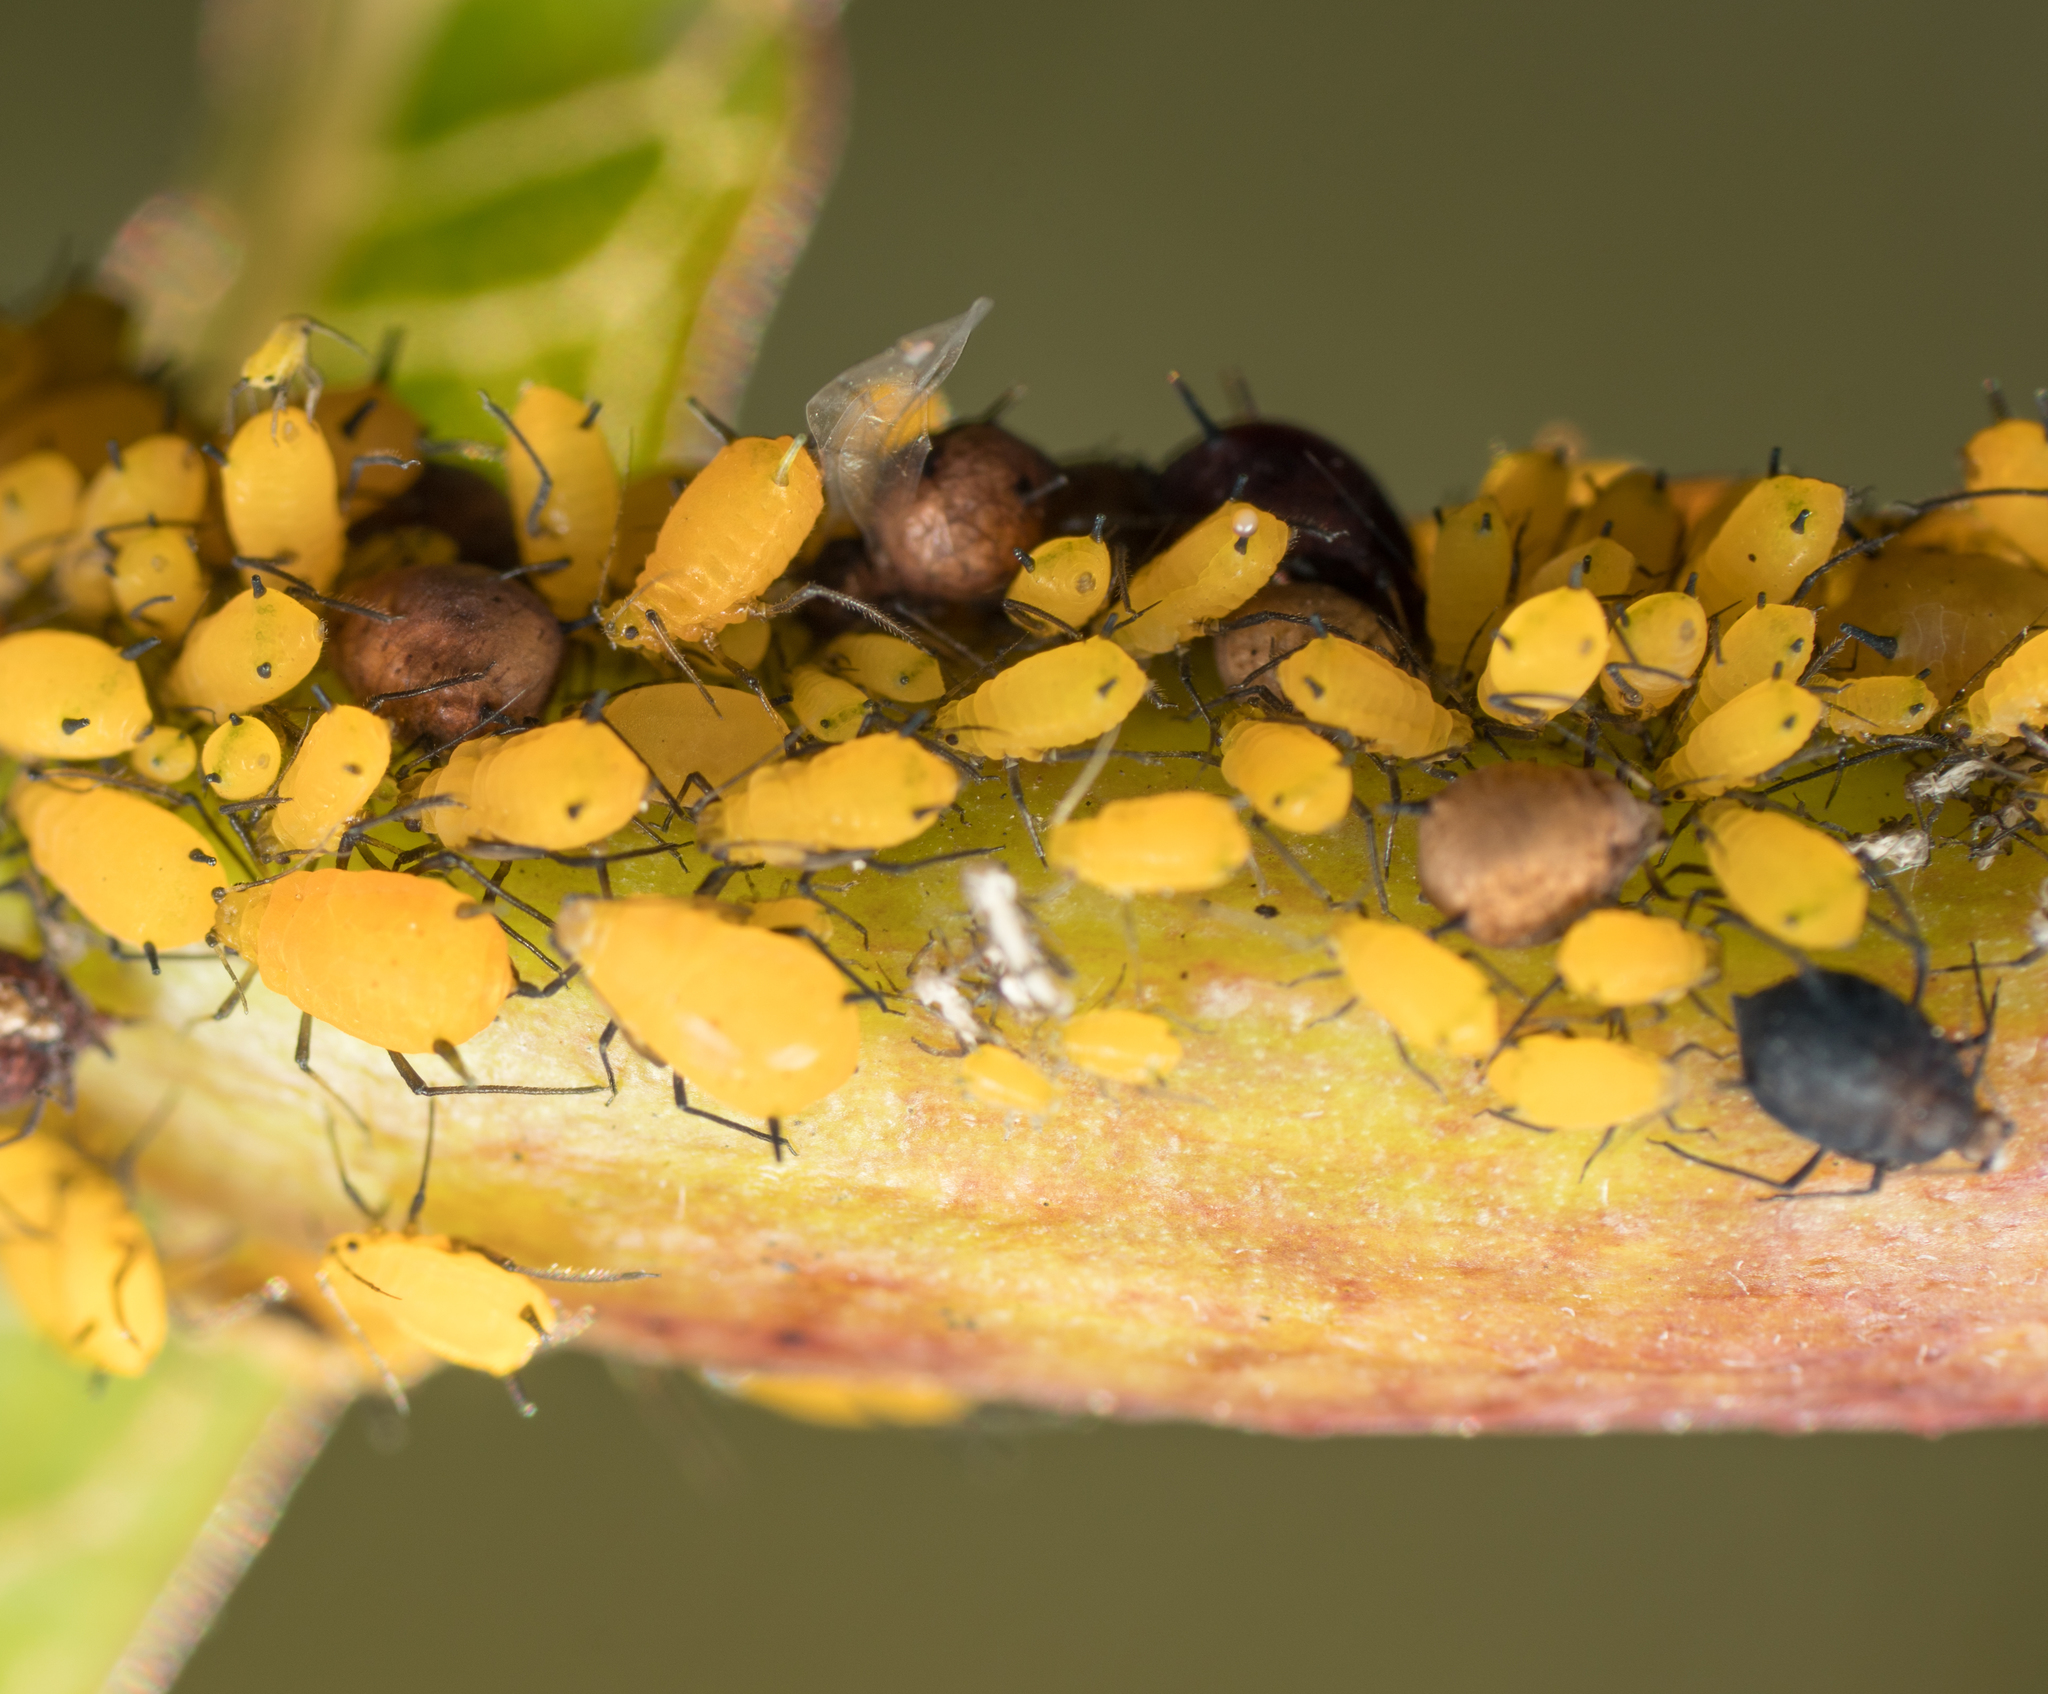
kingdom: Animalia
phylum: Arthropoda
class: Insecta
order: Hemiptera
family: Aphididae
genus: Aphis
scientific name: Aphis nerii
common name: Oleander aphid
